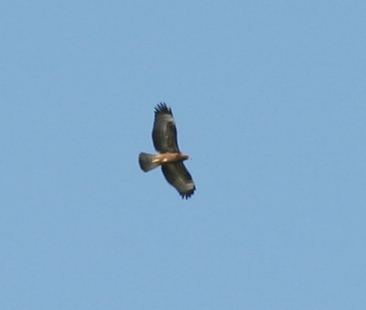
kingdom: Animalia
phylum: Chordata
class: Aves
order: Accipitriformes
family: Accipitridae
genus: Buteo
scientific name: Buteo buteo
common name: Common buzzard
